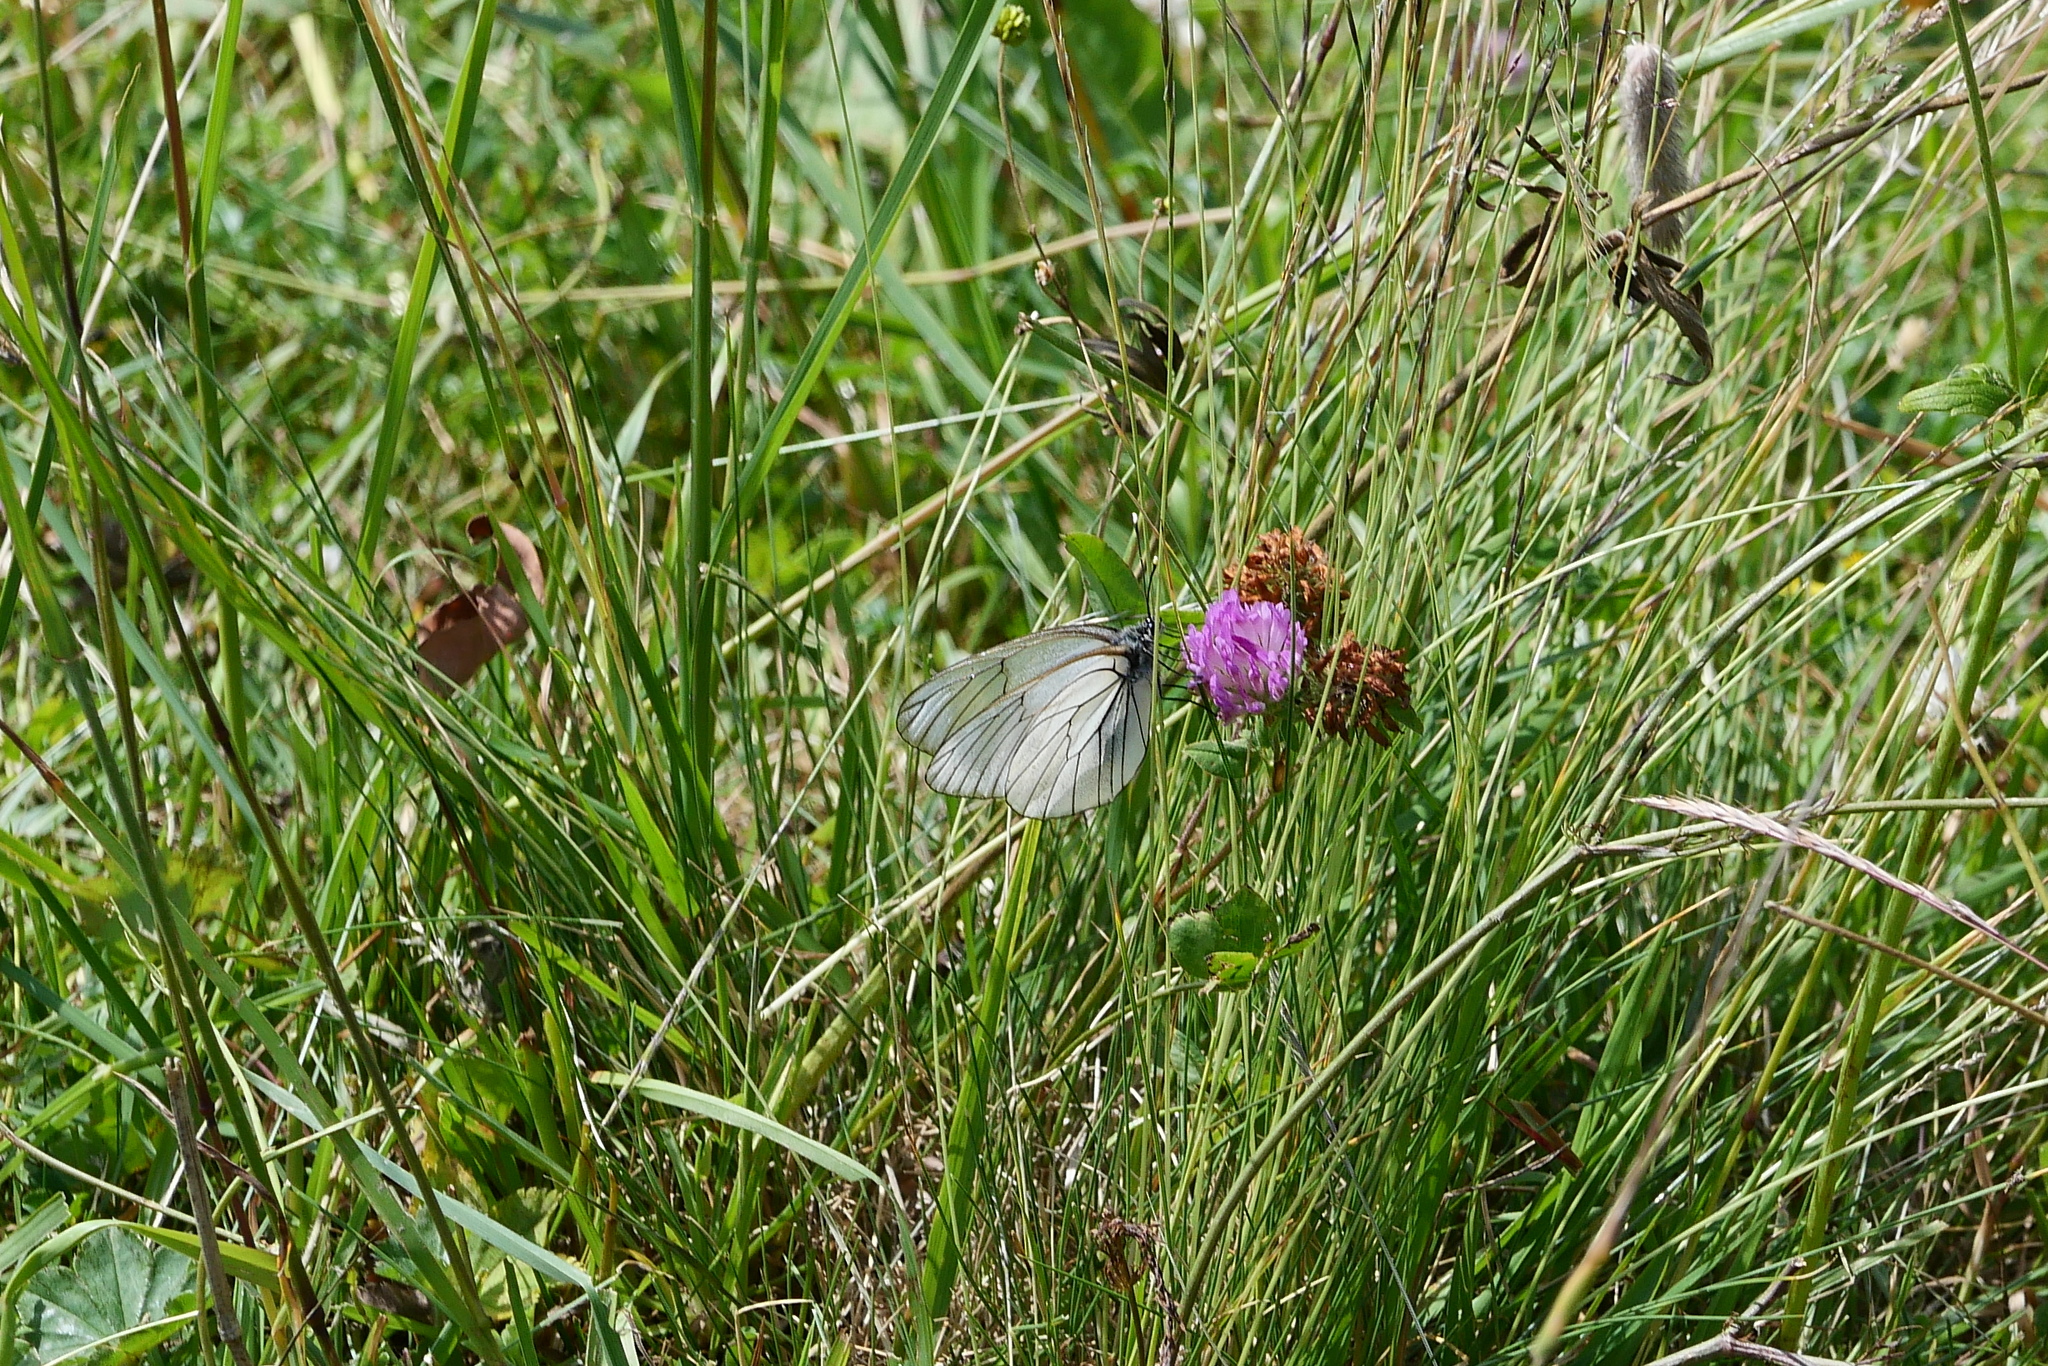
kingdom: Animalia
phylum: Arthropoda
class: Insecta
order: Lepidoptera
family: Pieridae
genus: Aporia
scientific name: Aporia crataegi
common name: Black-veined white
